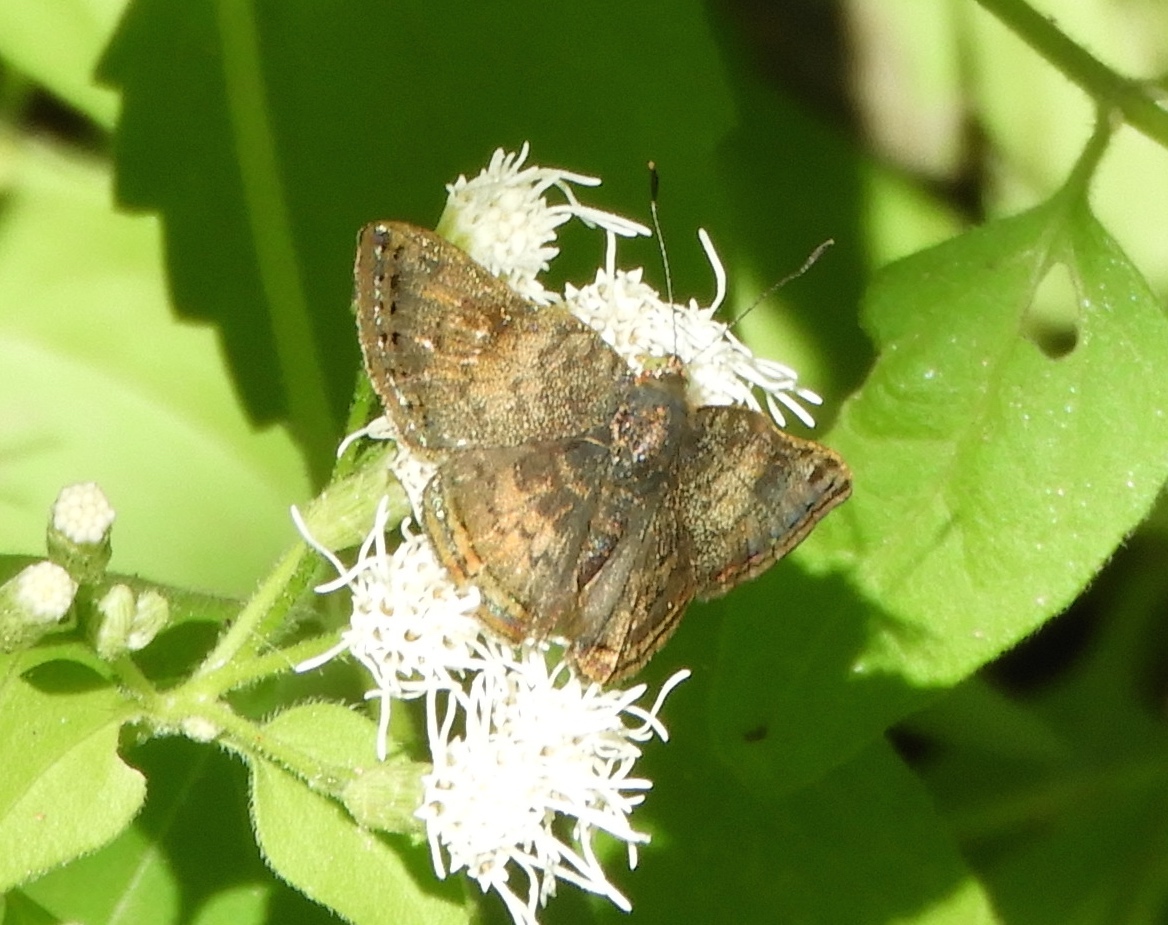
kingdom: Animalia
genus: Caria
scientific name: Caria ino
